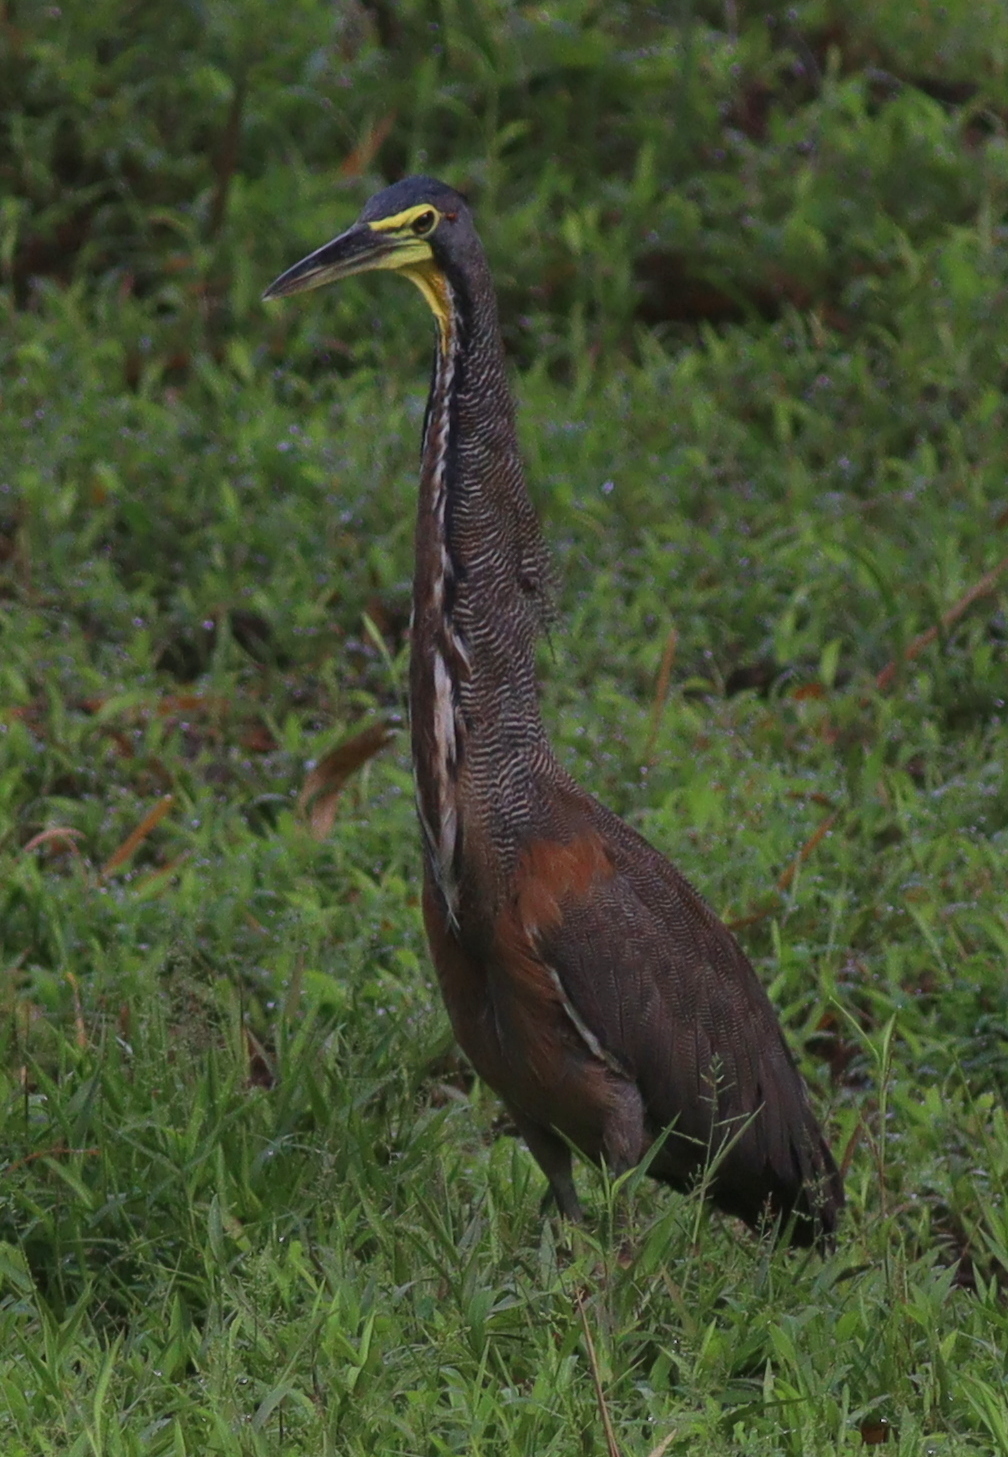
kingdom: Animalia
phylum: Chordata
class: Aves
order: Pelecaniformes
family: Ardeidae
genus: Tigrisoma
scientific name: Tigrisoma mexicanum
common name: Bare-throated tiger-heron
